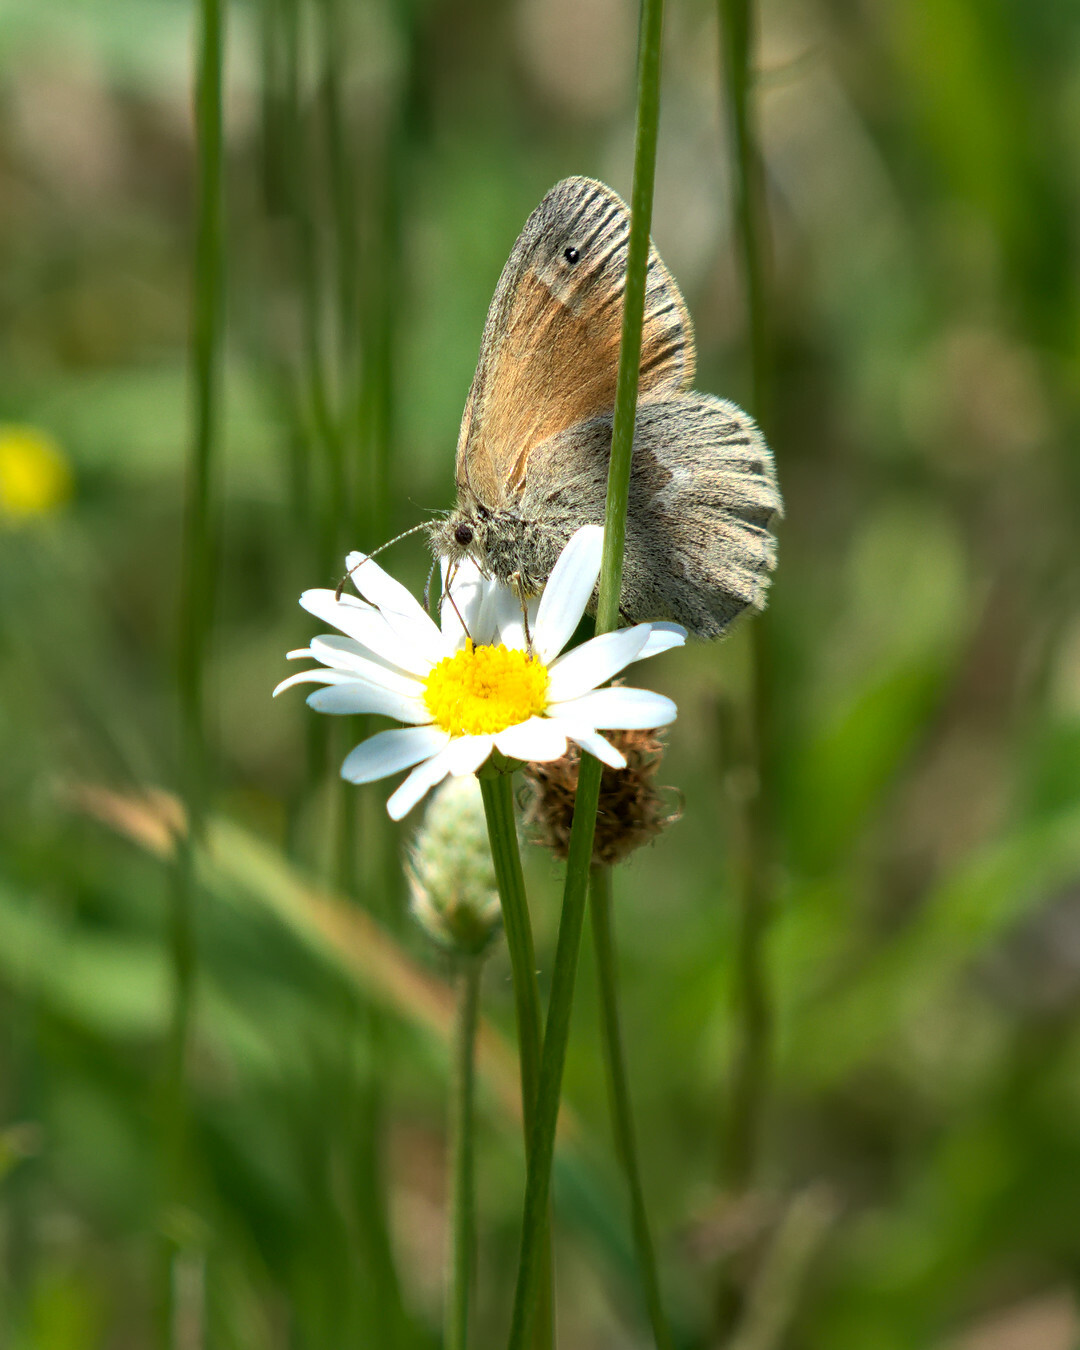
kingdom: Animalia
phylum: Arthropoda
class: Insecta
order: Lepidoptera
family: Nymphalidae
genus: Coenonympha
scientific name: Coenonympha california
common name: Common ringlet
